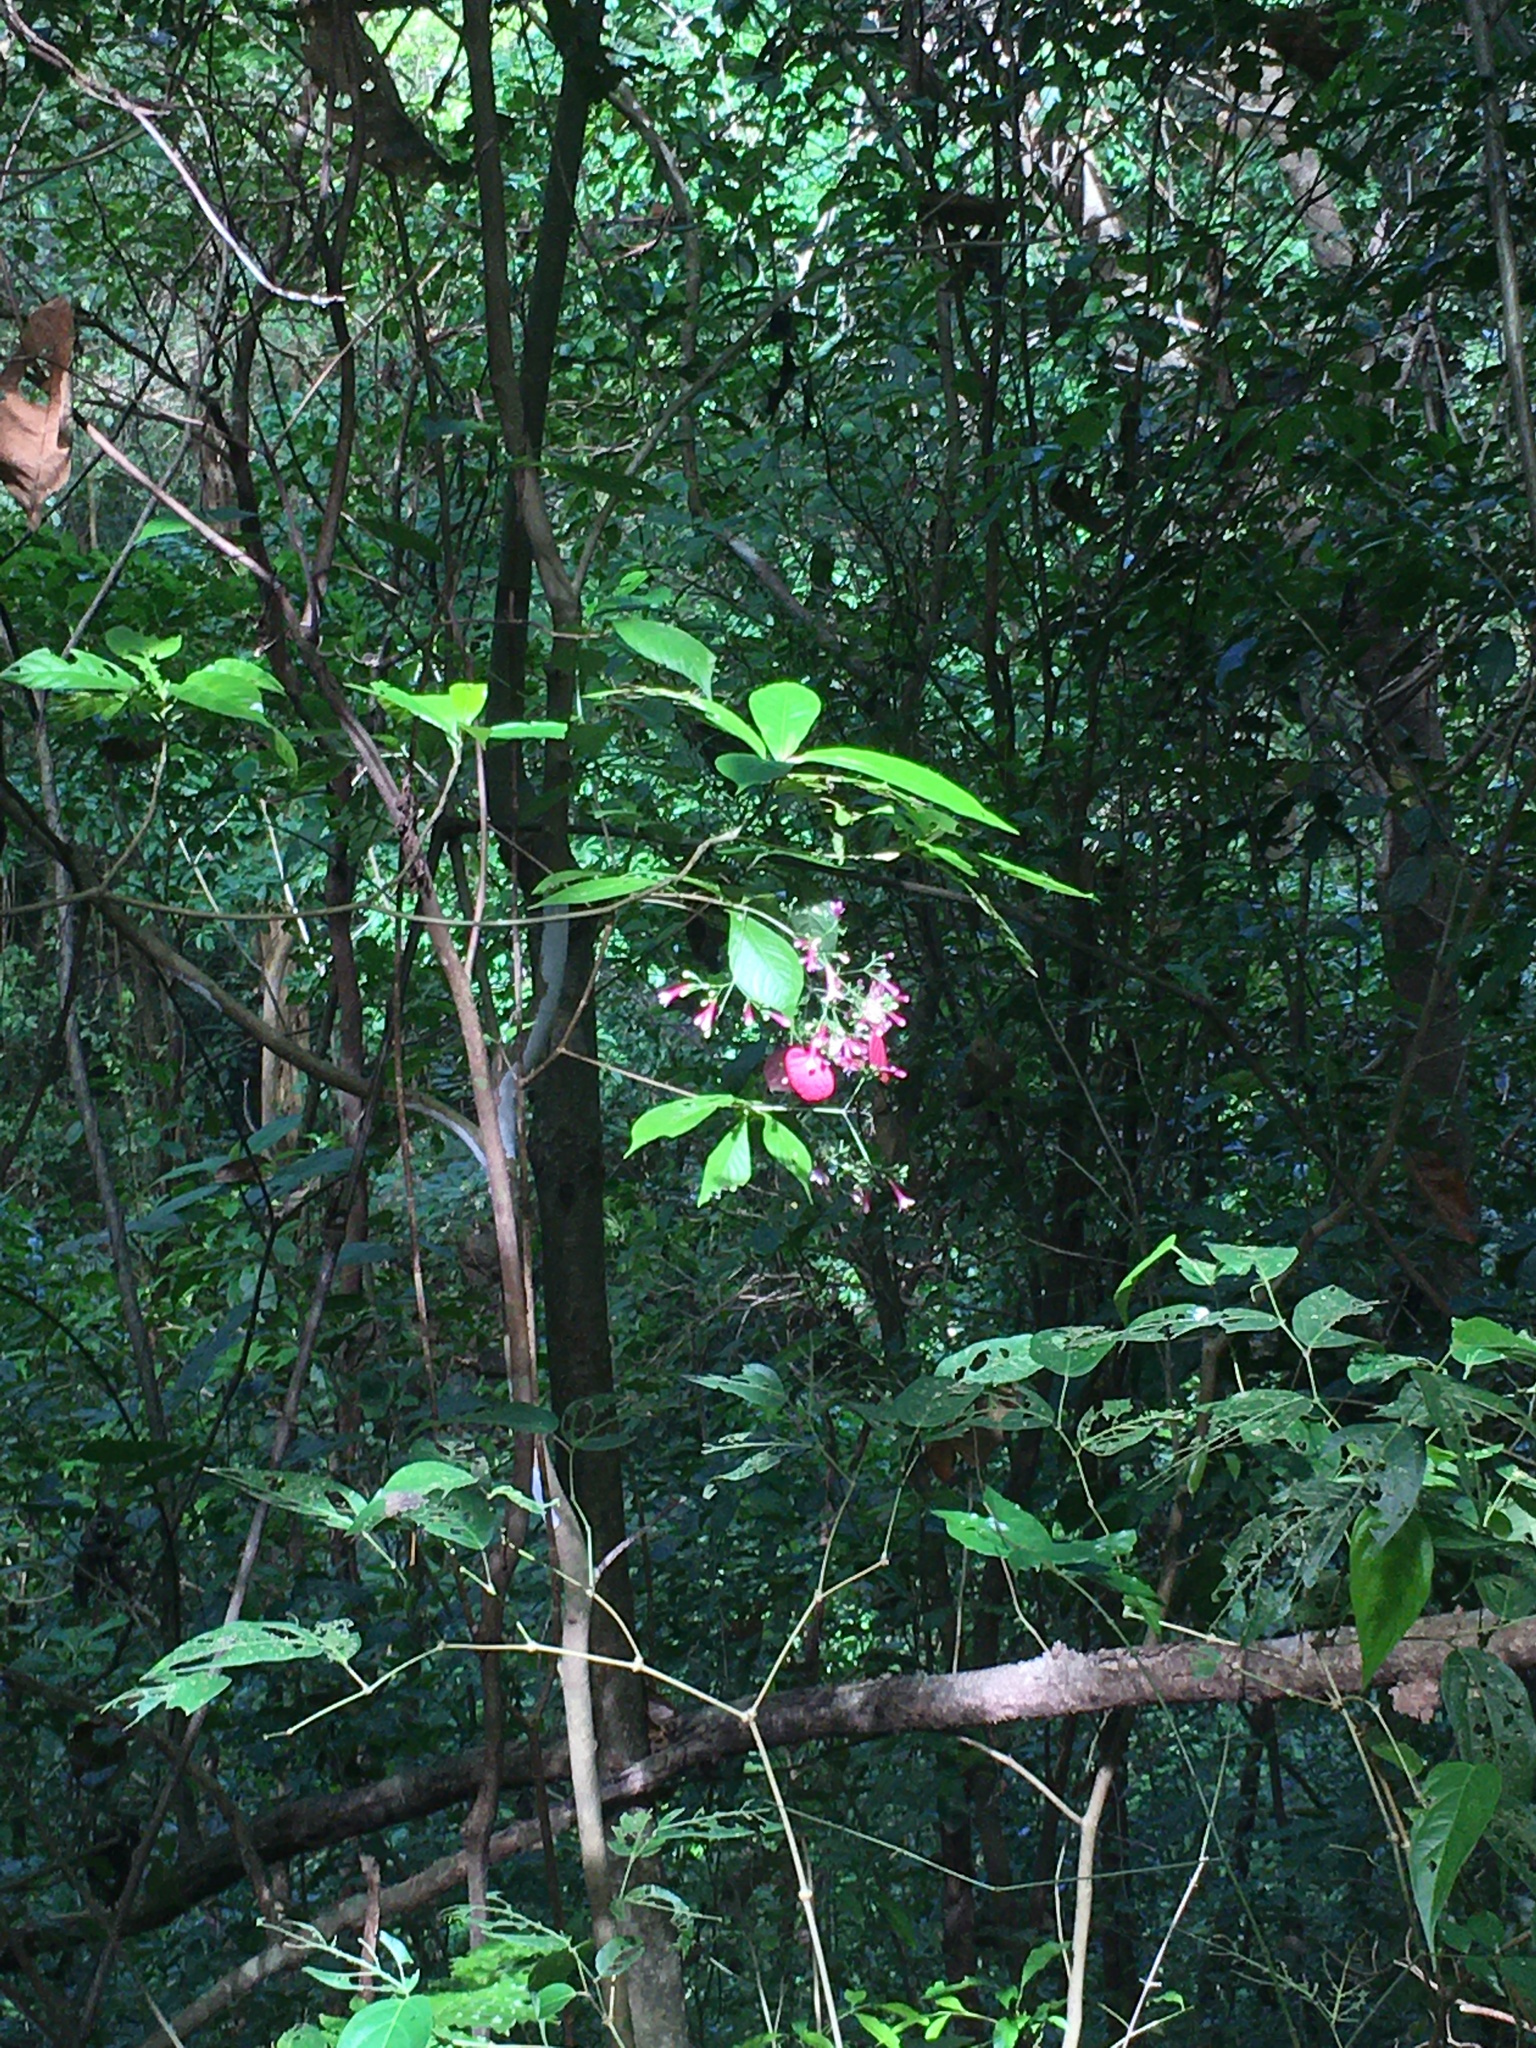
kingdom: Plantae
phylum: Tracheophyta
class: Magnoliopsida
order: Gentianales
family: Rubiaceae
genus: Pogonopus
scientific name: Pogonopus exsertus
